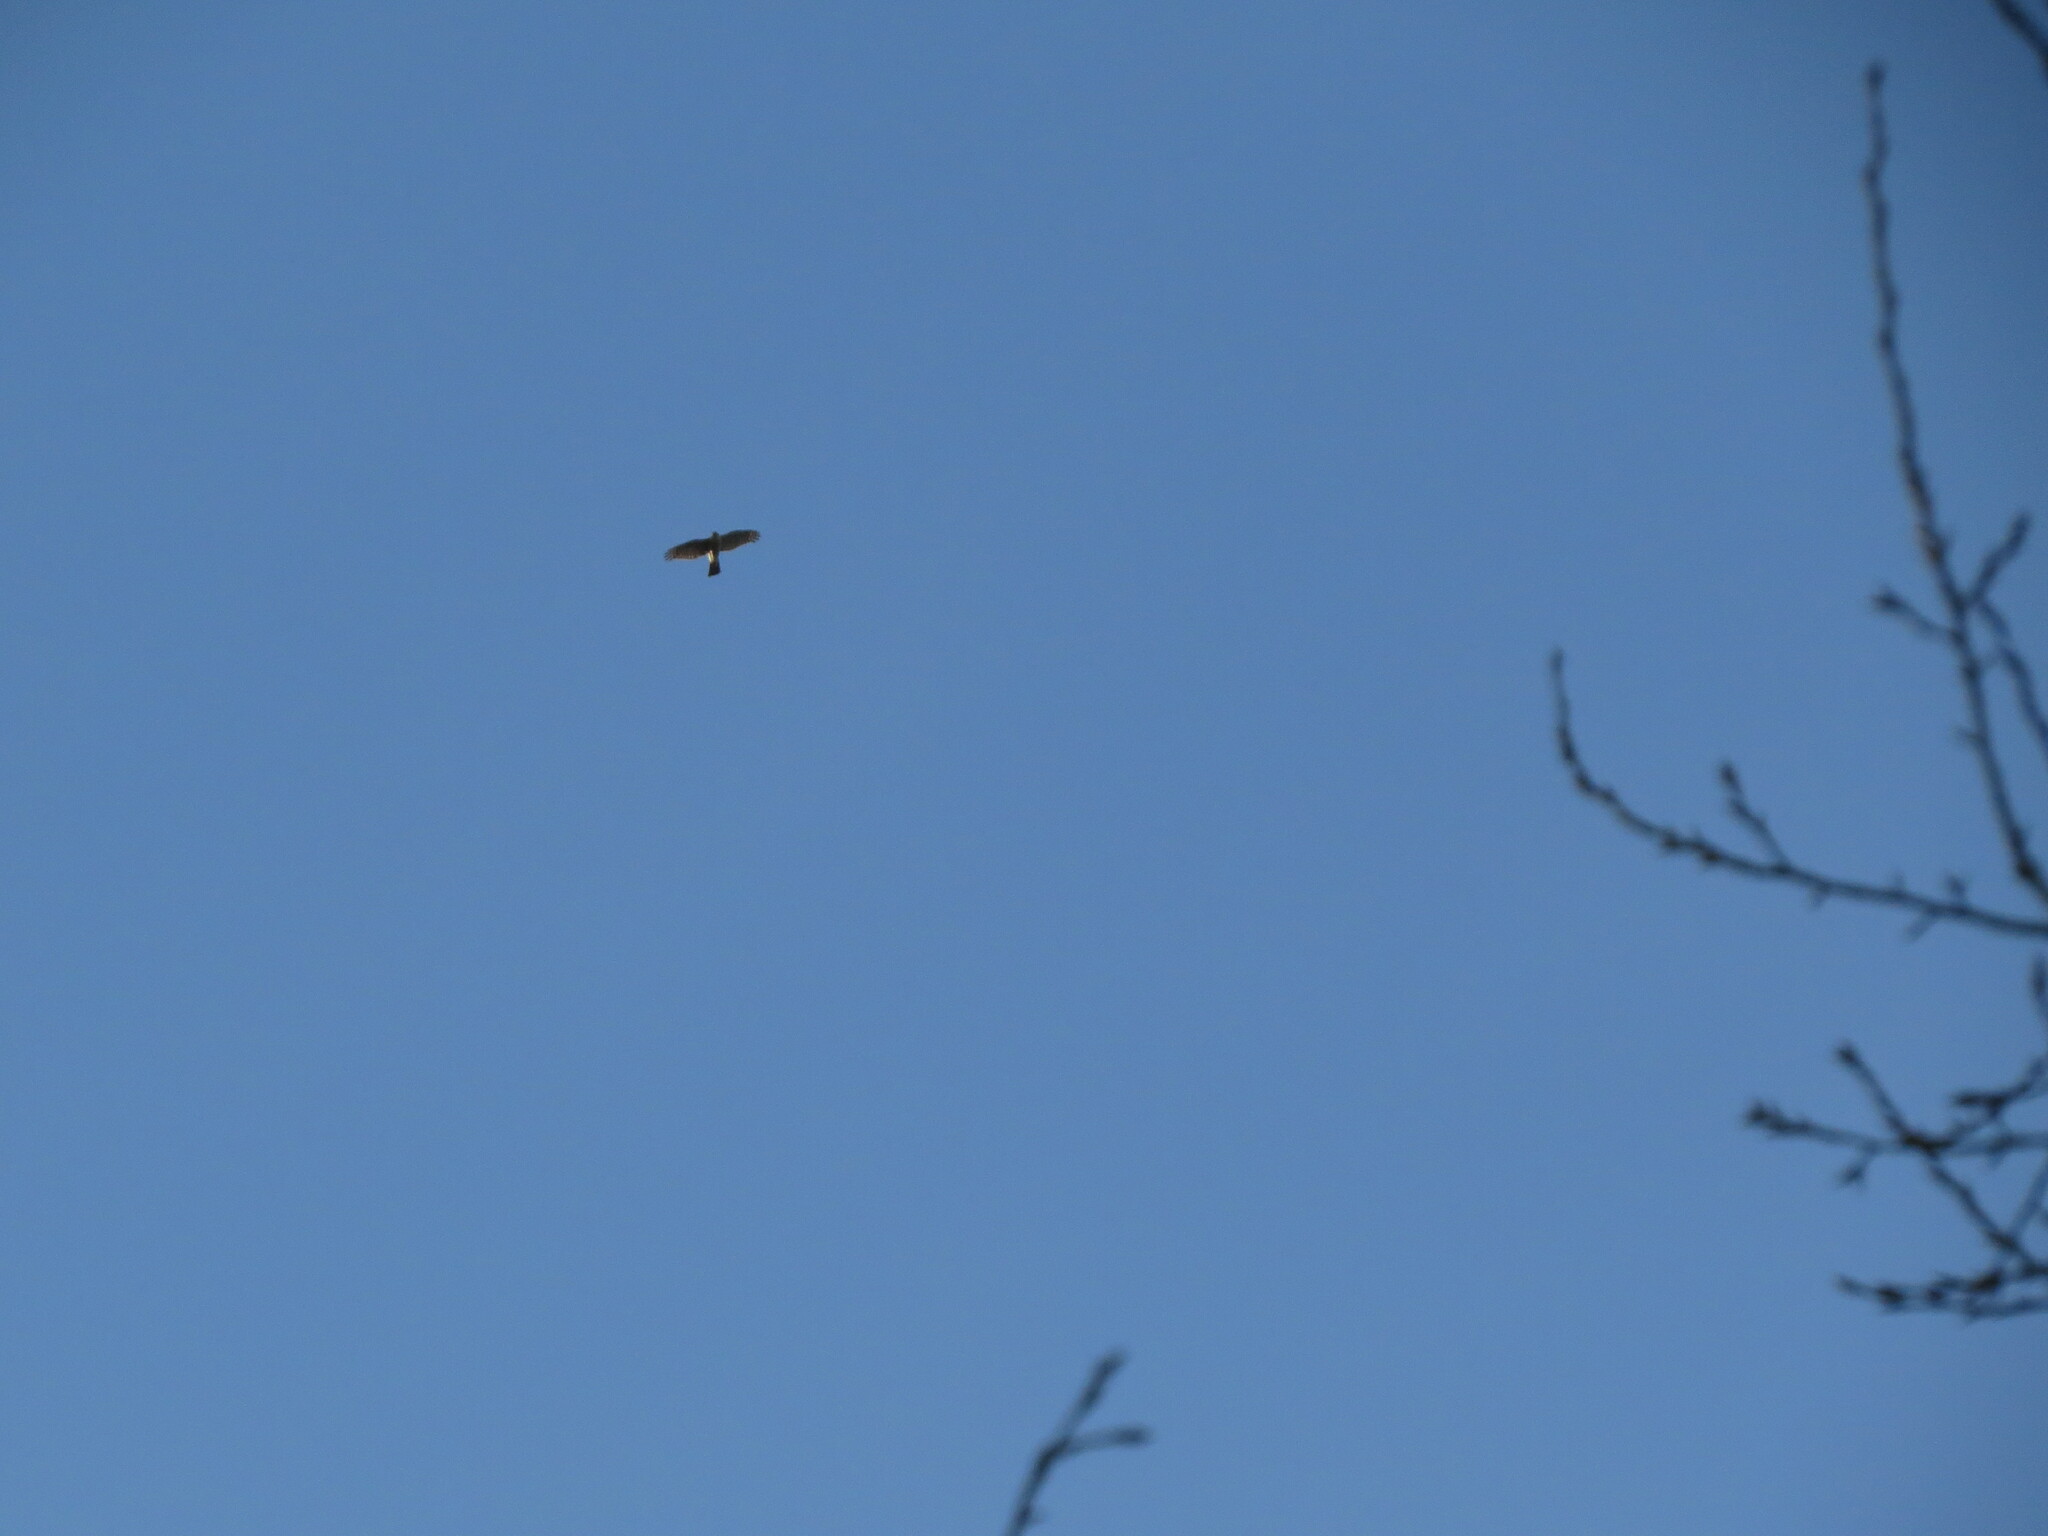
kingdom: Animalia
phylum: Chordata
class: Aves
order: Accipitriformes
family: Accipitridae
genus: Accipiter
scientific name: Accipiter nisus
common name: Eurasian sparrowhawk
